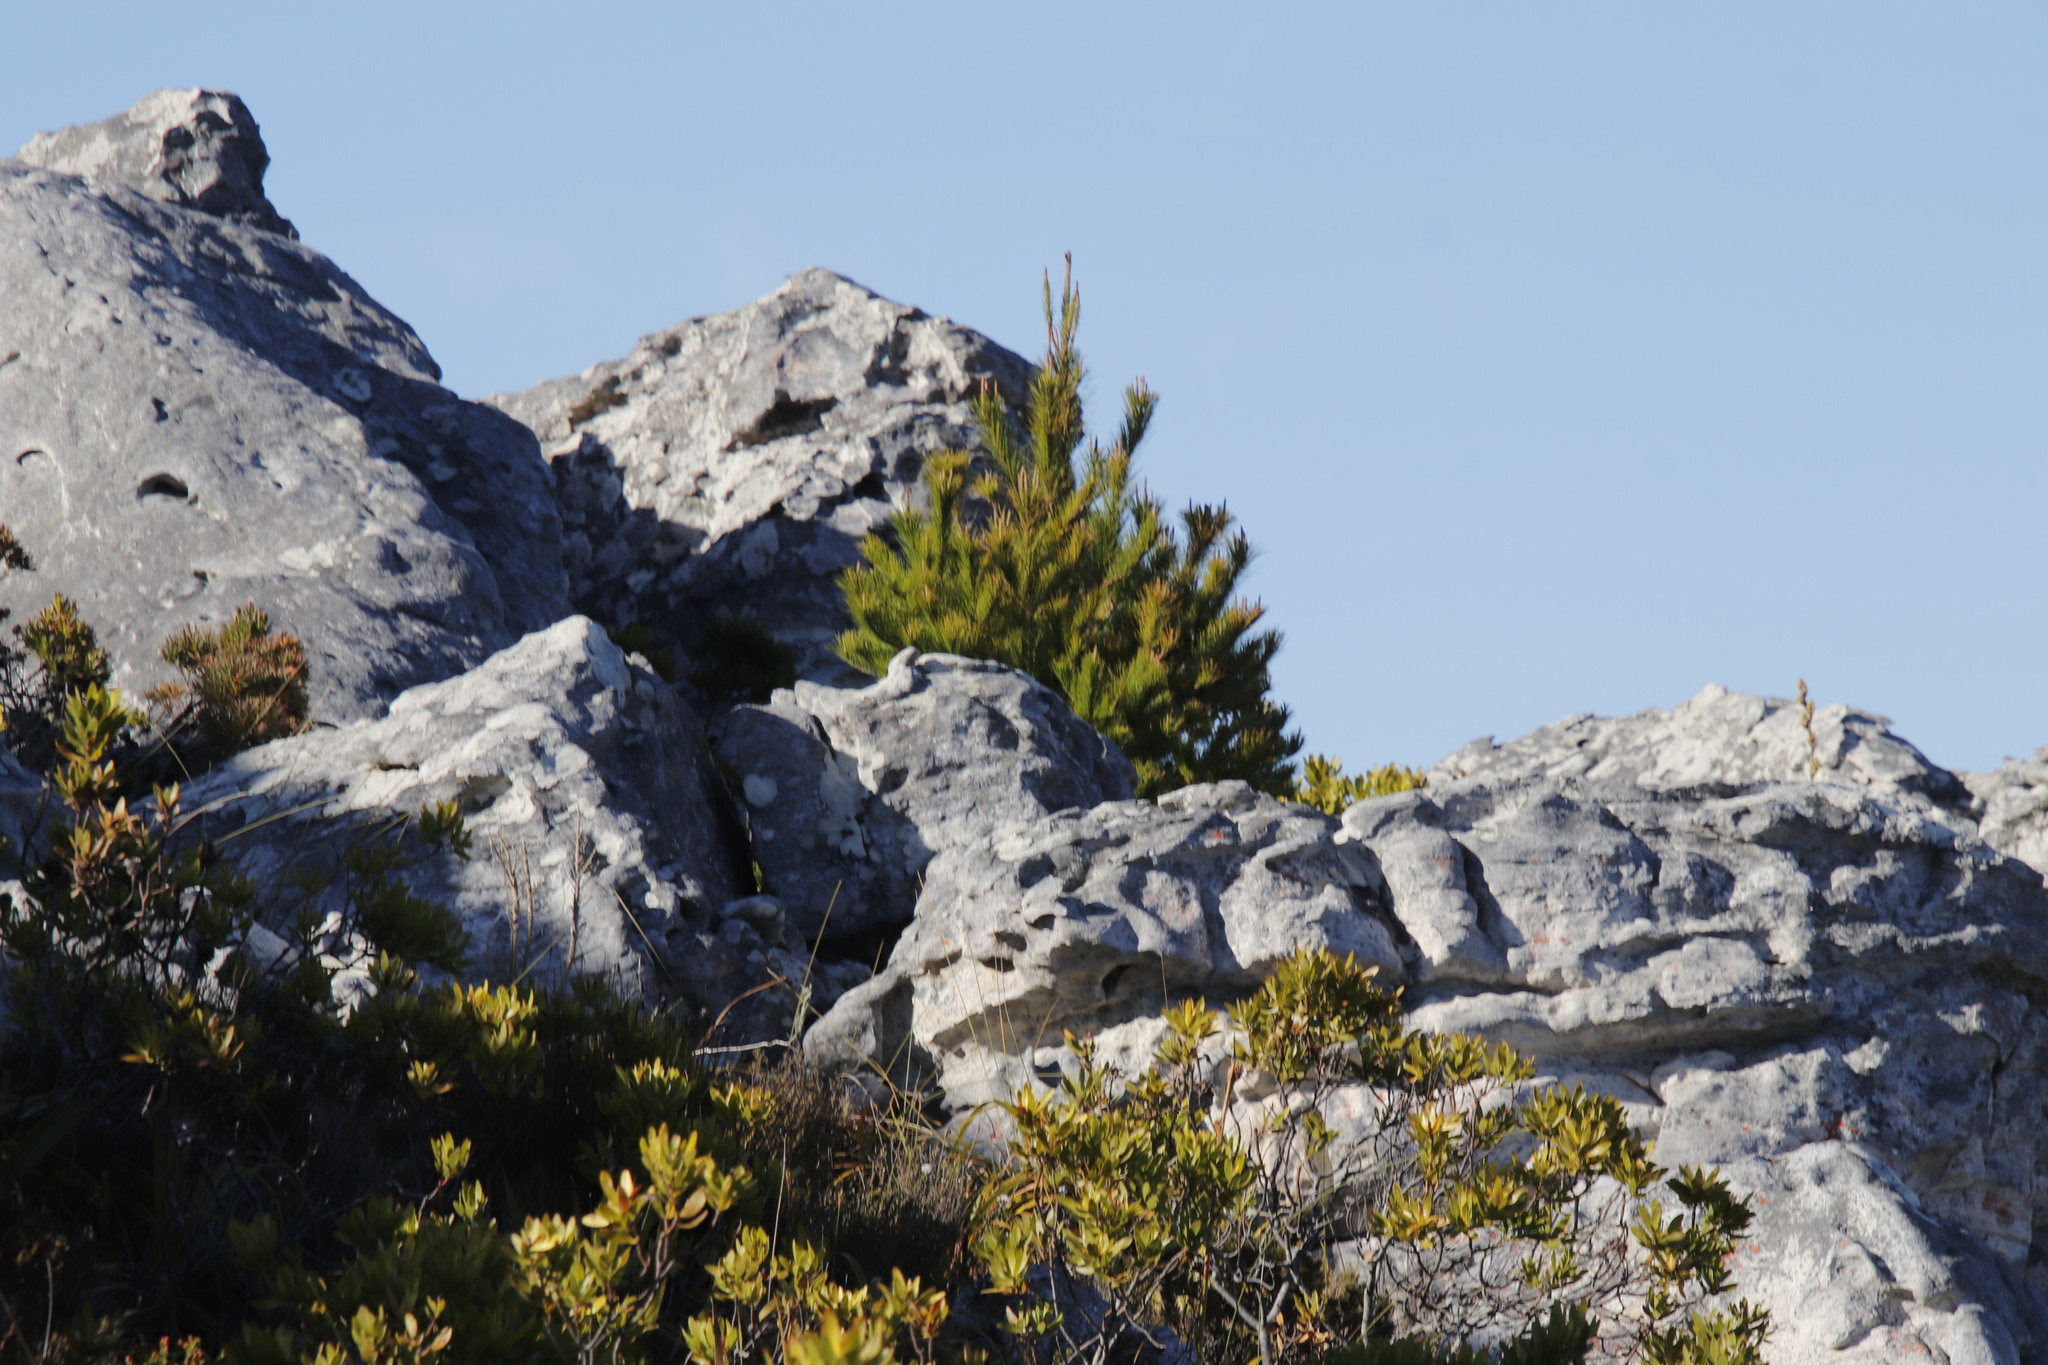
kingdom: Plantae
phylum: Tracheophyta
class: Pinopsida
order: Pinales
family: Pinaceae
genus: Pinus
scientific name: Pinus radiata
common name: Monterey pine
